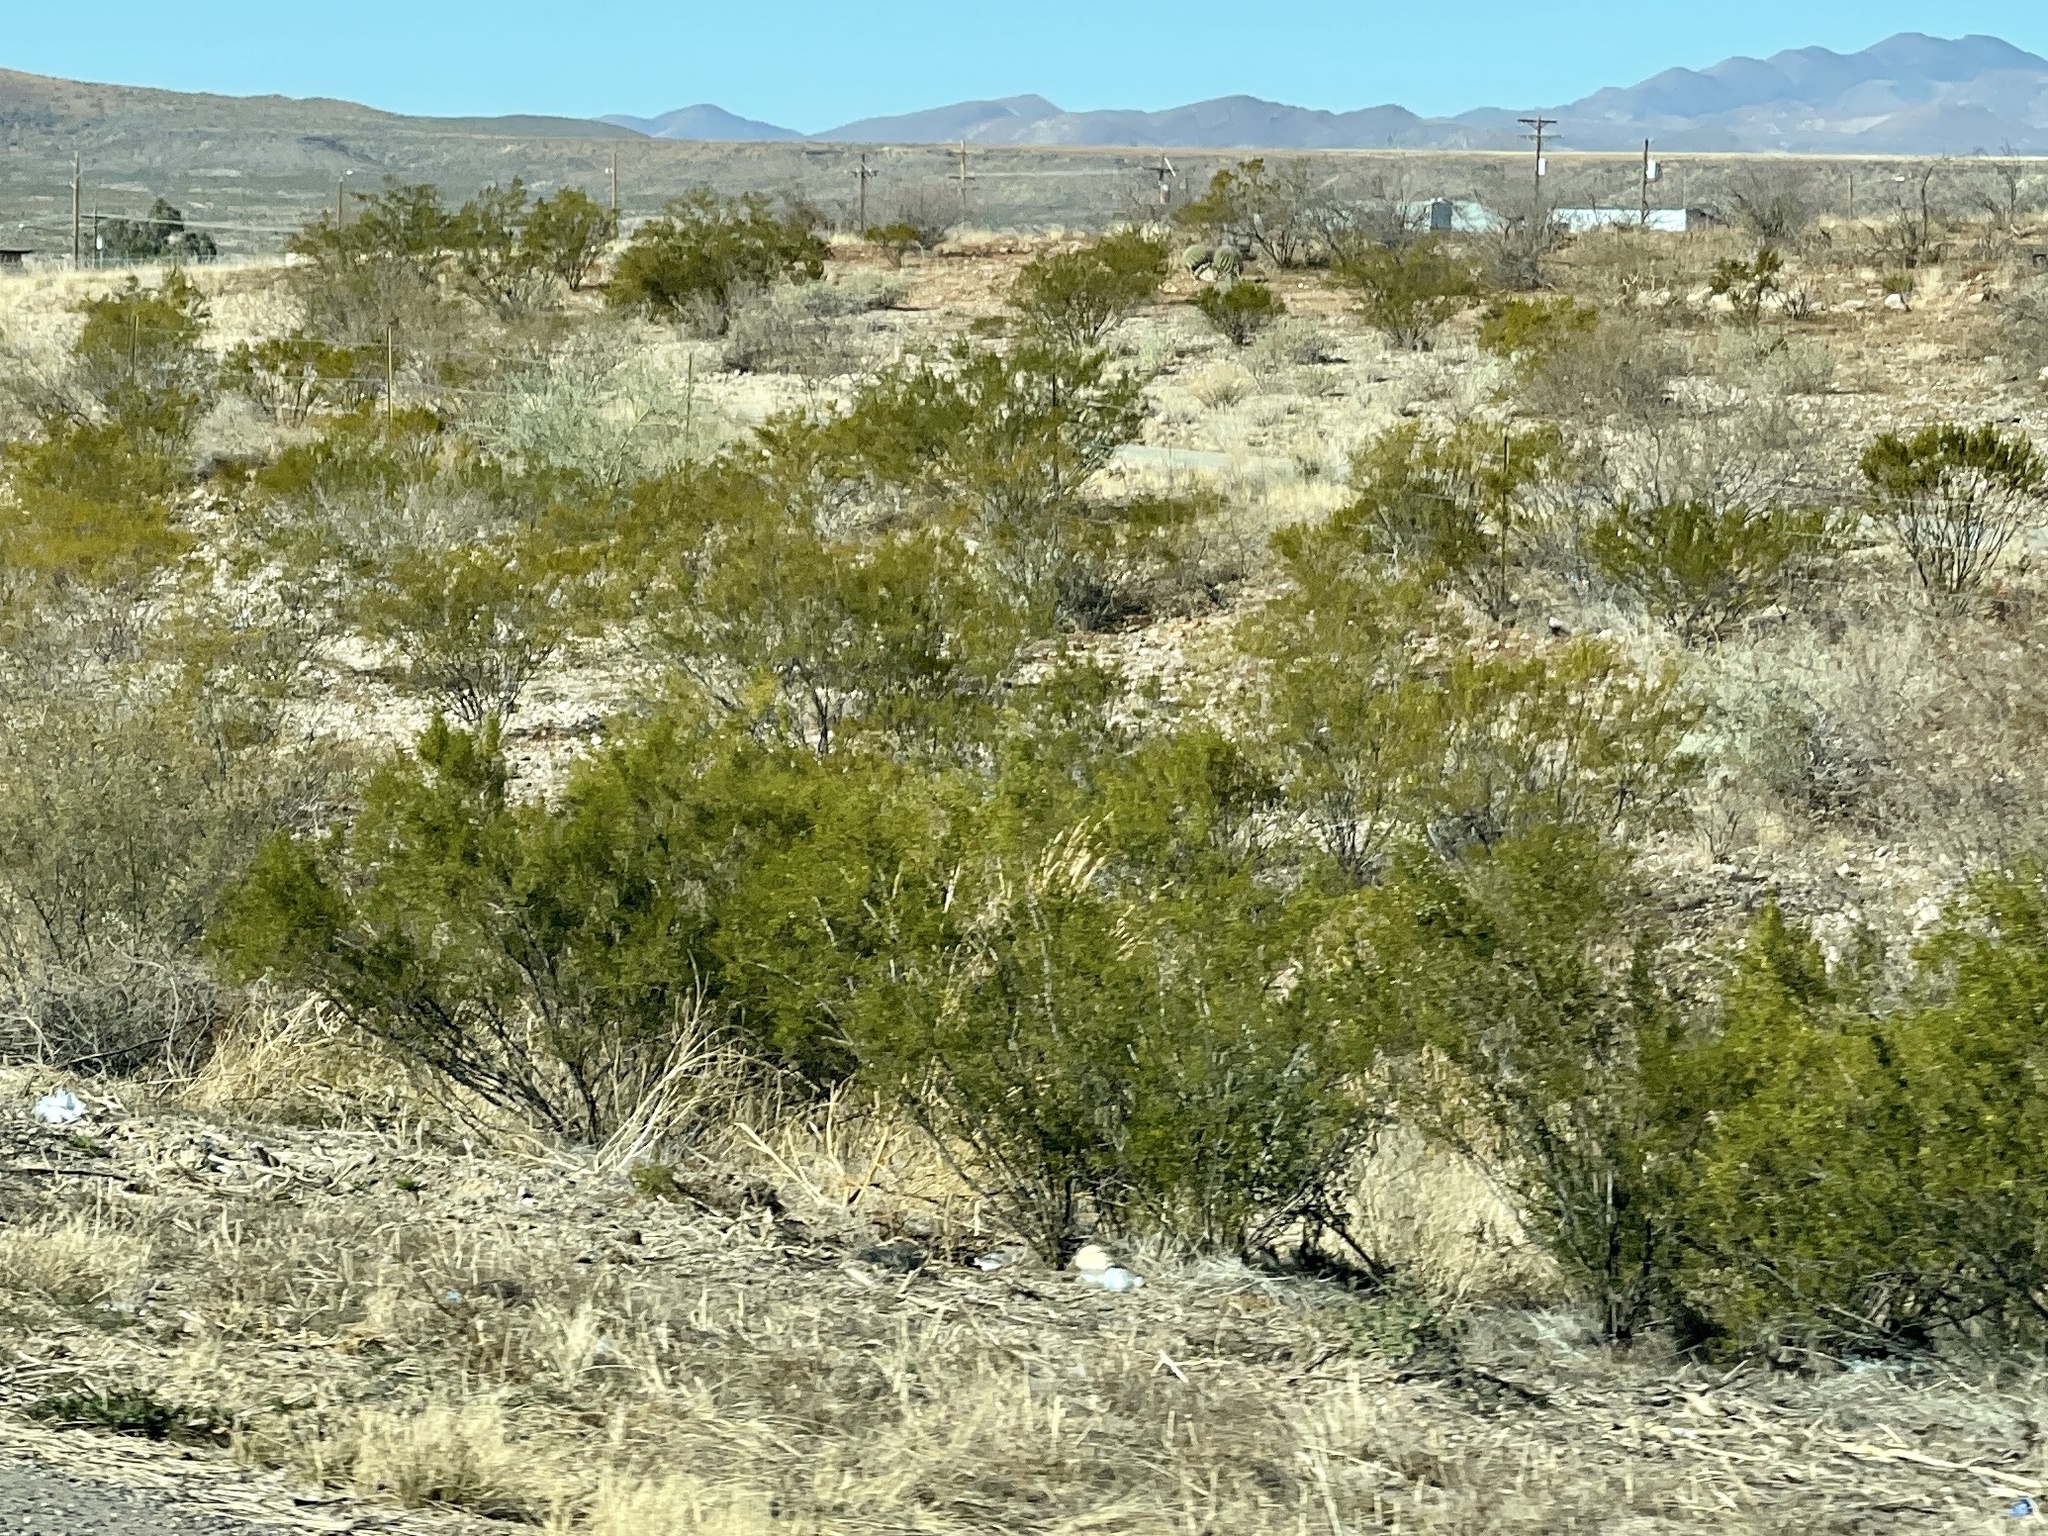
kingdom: Plantae
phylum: Tracheophyta
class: Magnoliopsida
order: Zygophyllales
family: Zygophyllaceae
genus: Larrea
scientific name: Larrea tridentata
